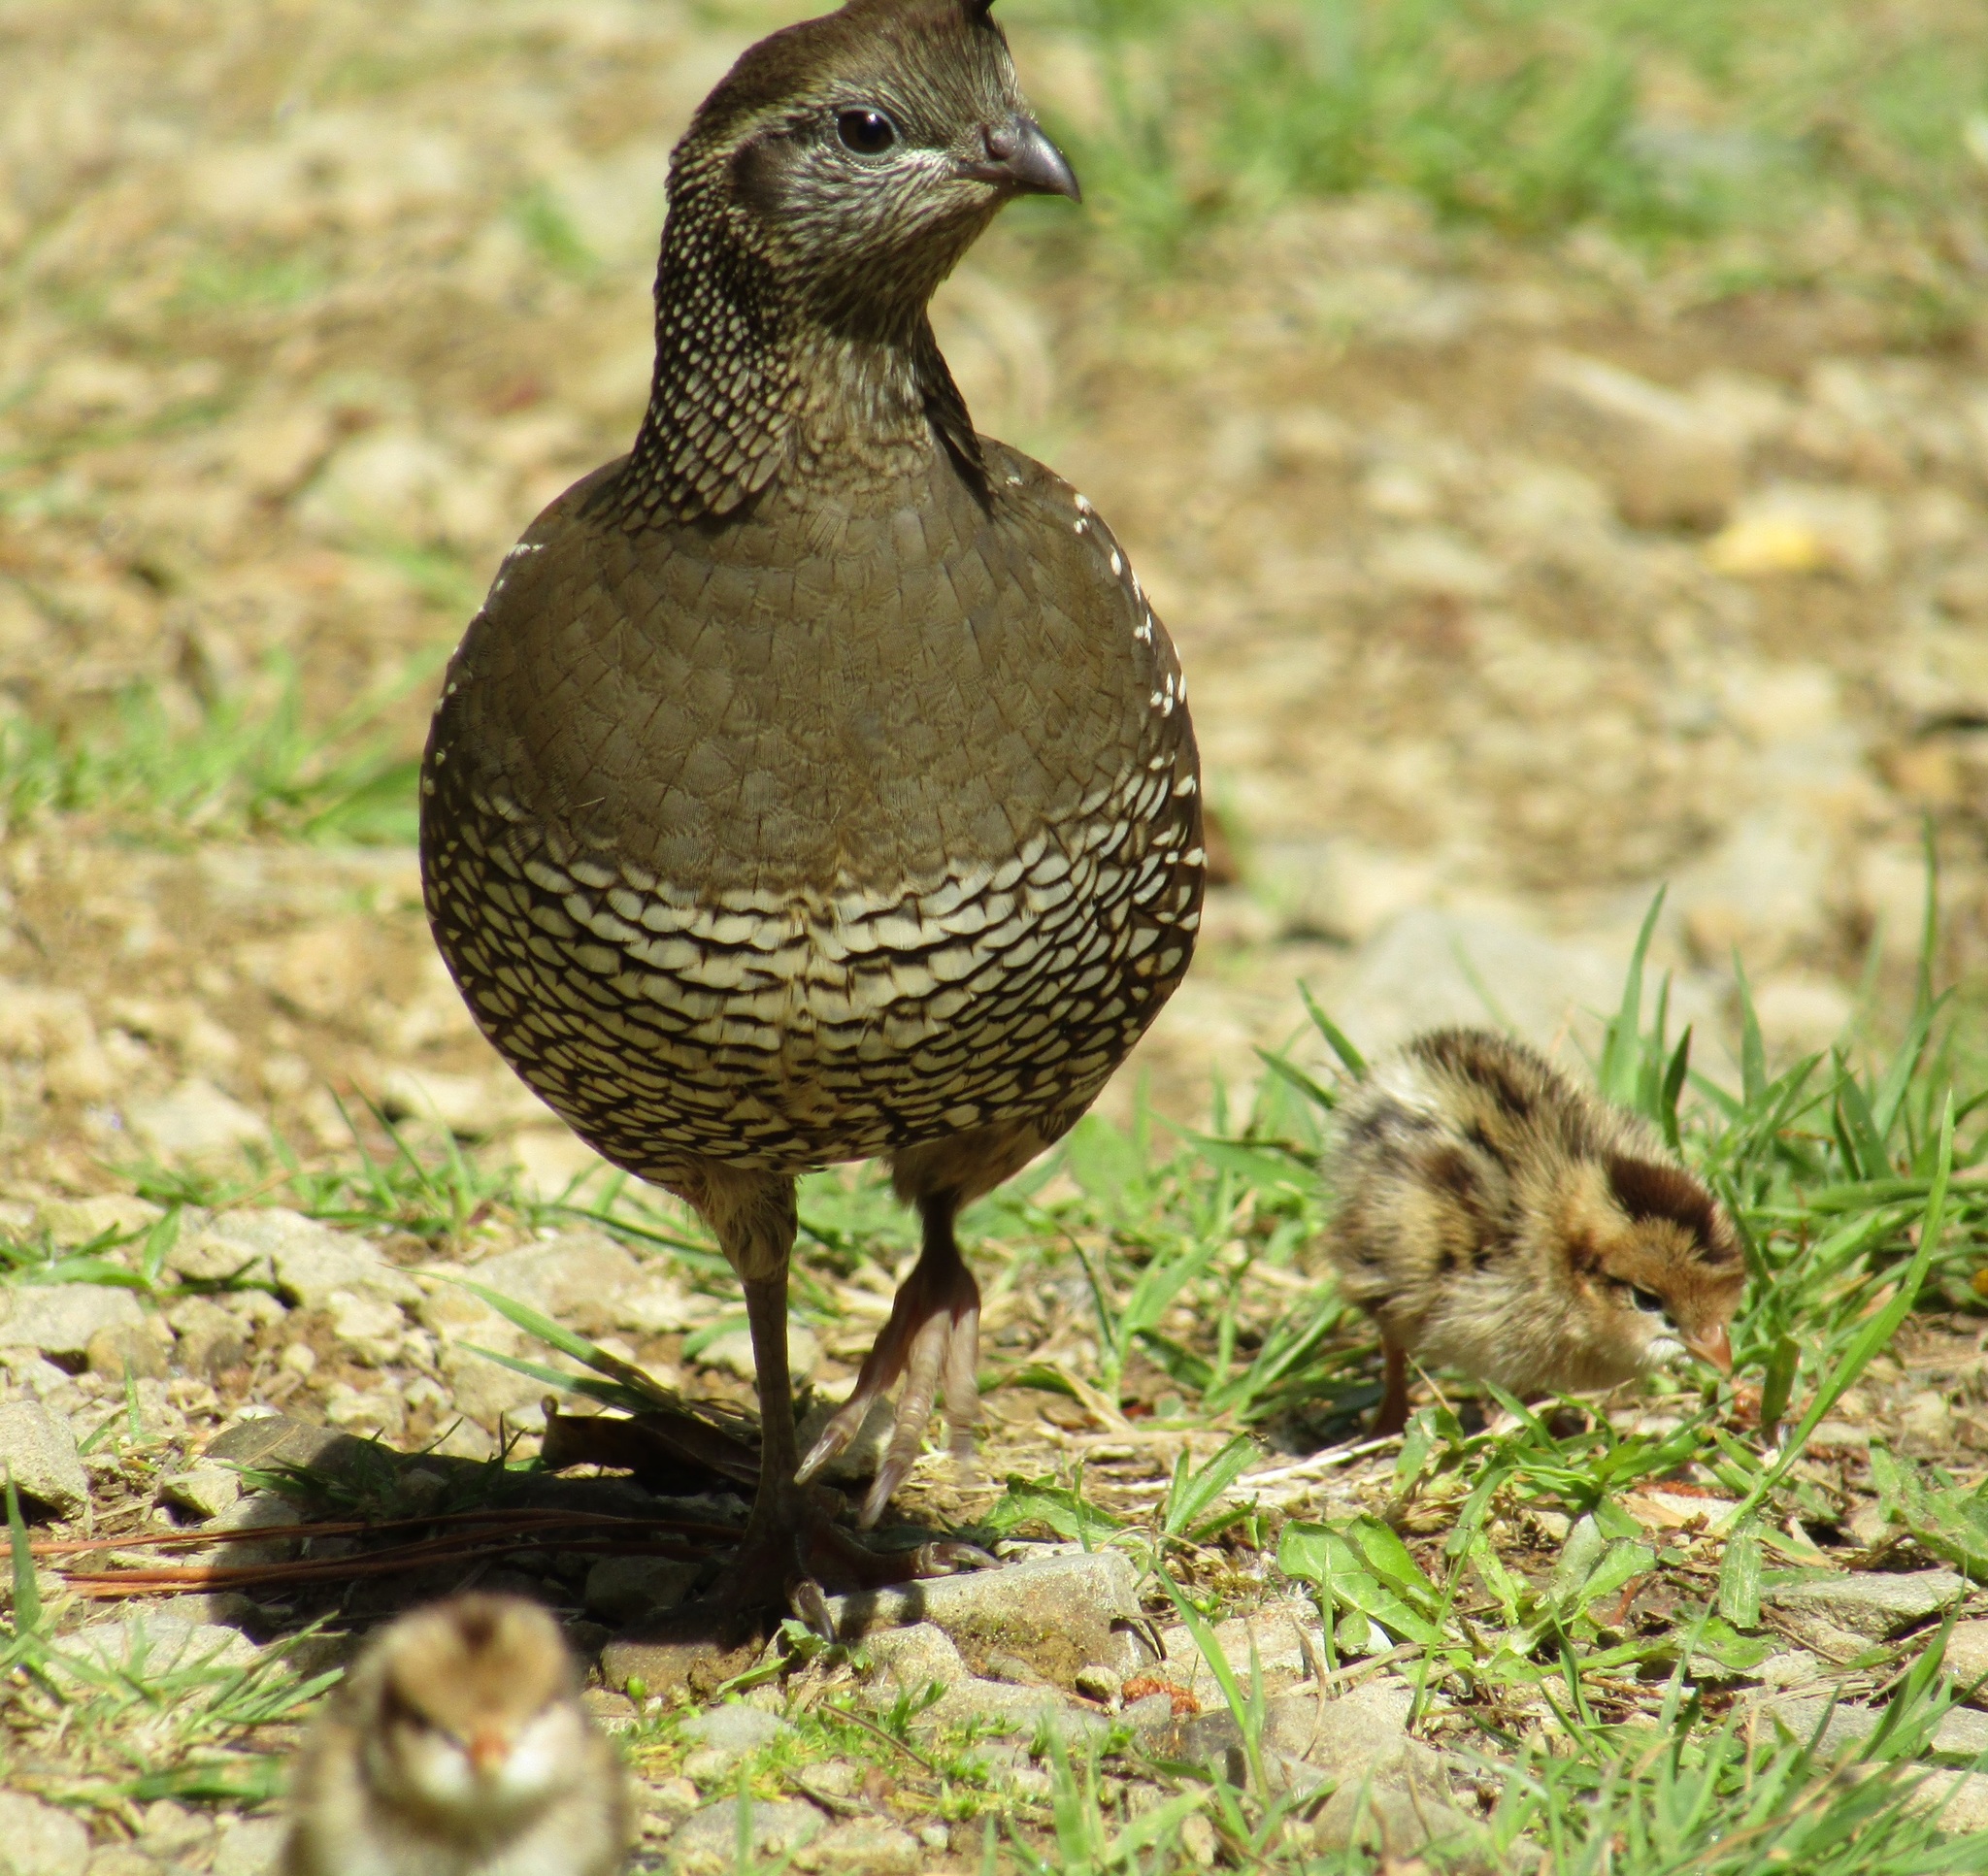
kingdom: Animalia
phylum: Chordata
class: Aves
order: Galliformes
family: Odontophoridae
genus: Callipepla
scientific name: Callipepla californica
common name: California quail
